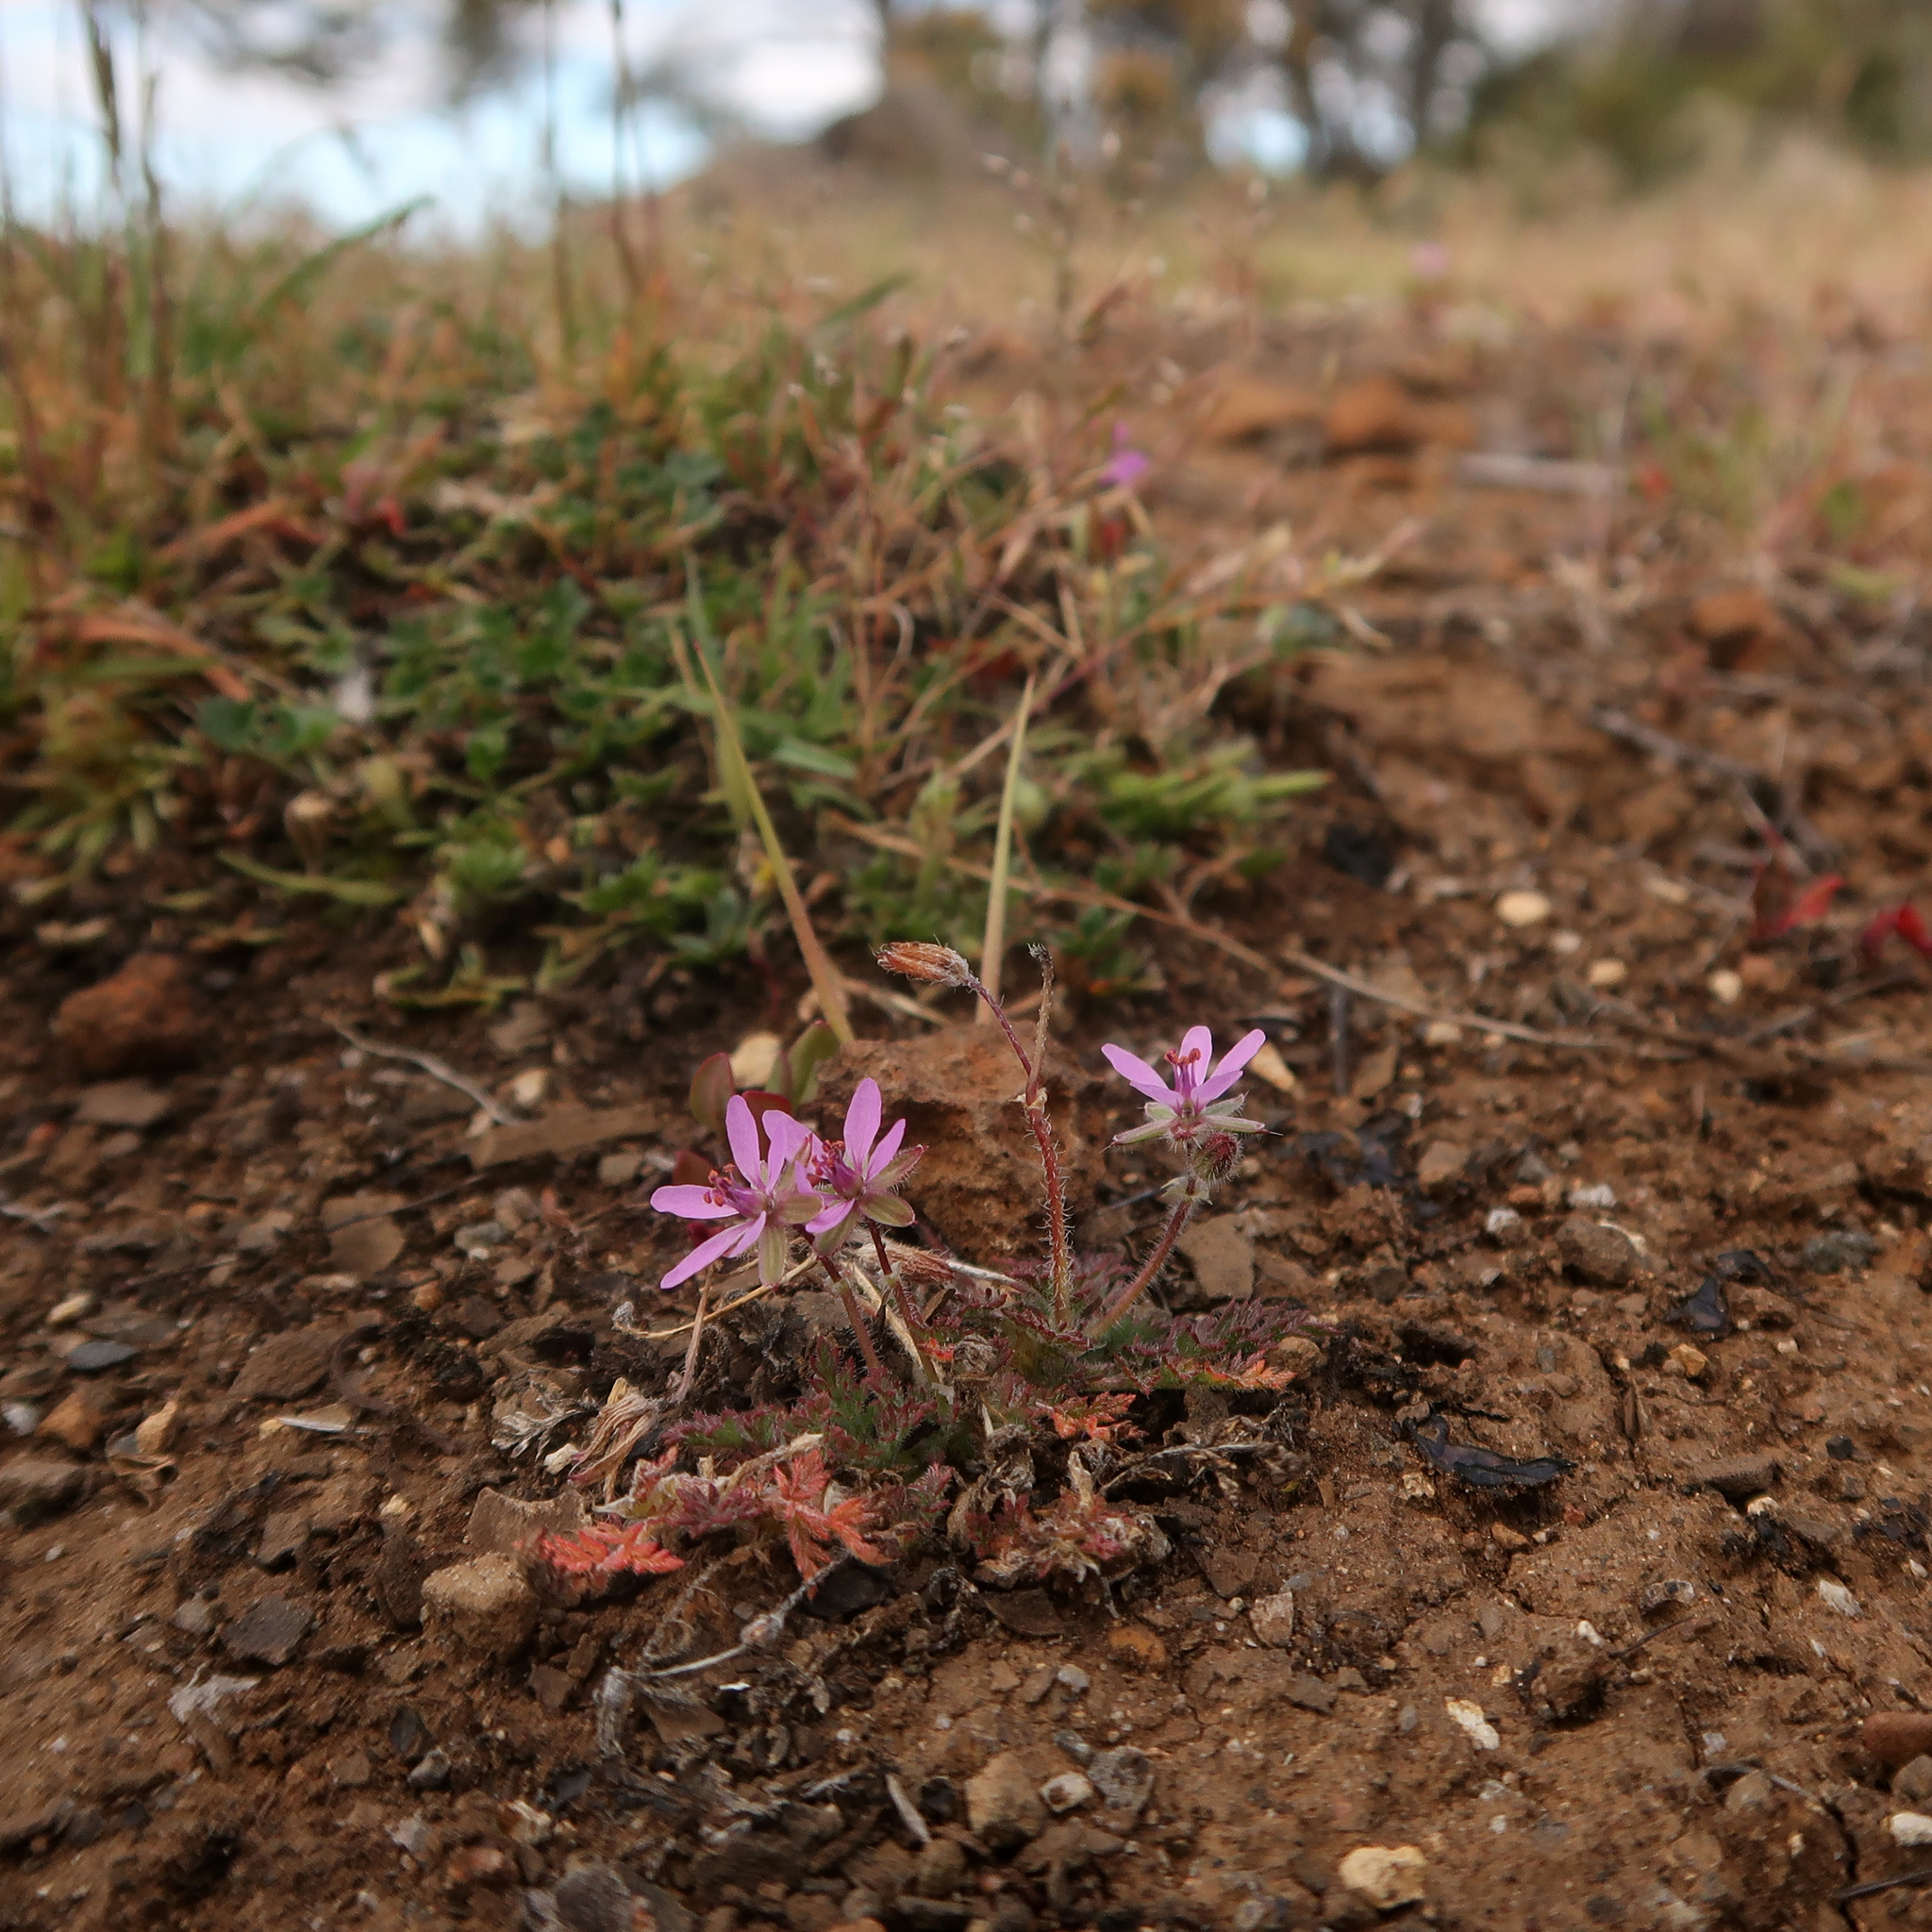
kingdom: Plantae
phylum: Tracheophyta
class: Magnoliopsida
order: Geraniales
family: Geraniaceae
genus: Erodium
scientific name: Erodium moschatum
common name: Musk stork's-bill
